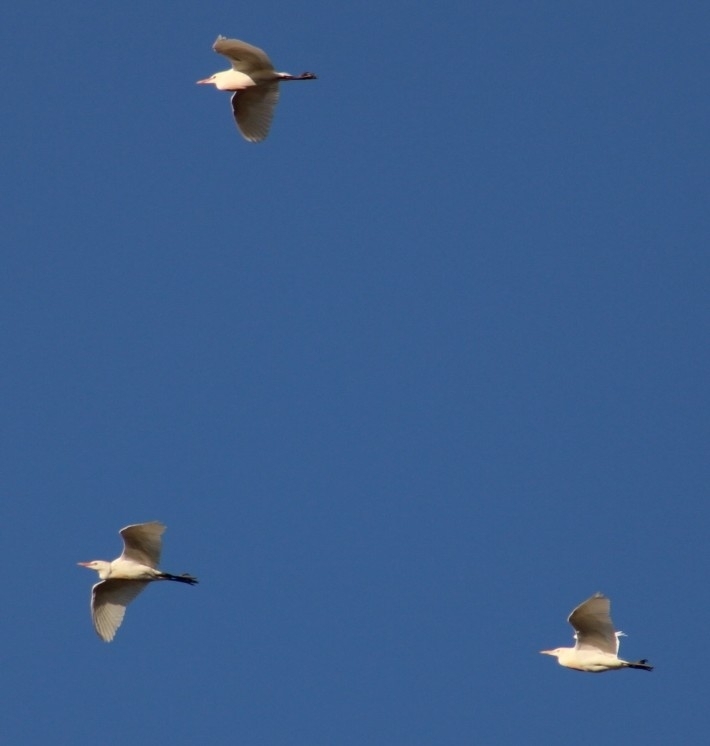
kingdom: Animalia
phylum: Chordata
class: Aves
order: Pelecaniformes
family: Ardeidae
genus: Bubulcus
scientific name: Bubulcus ibis
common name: Cattle egret
